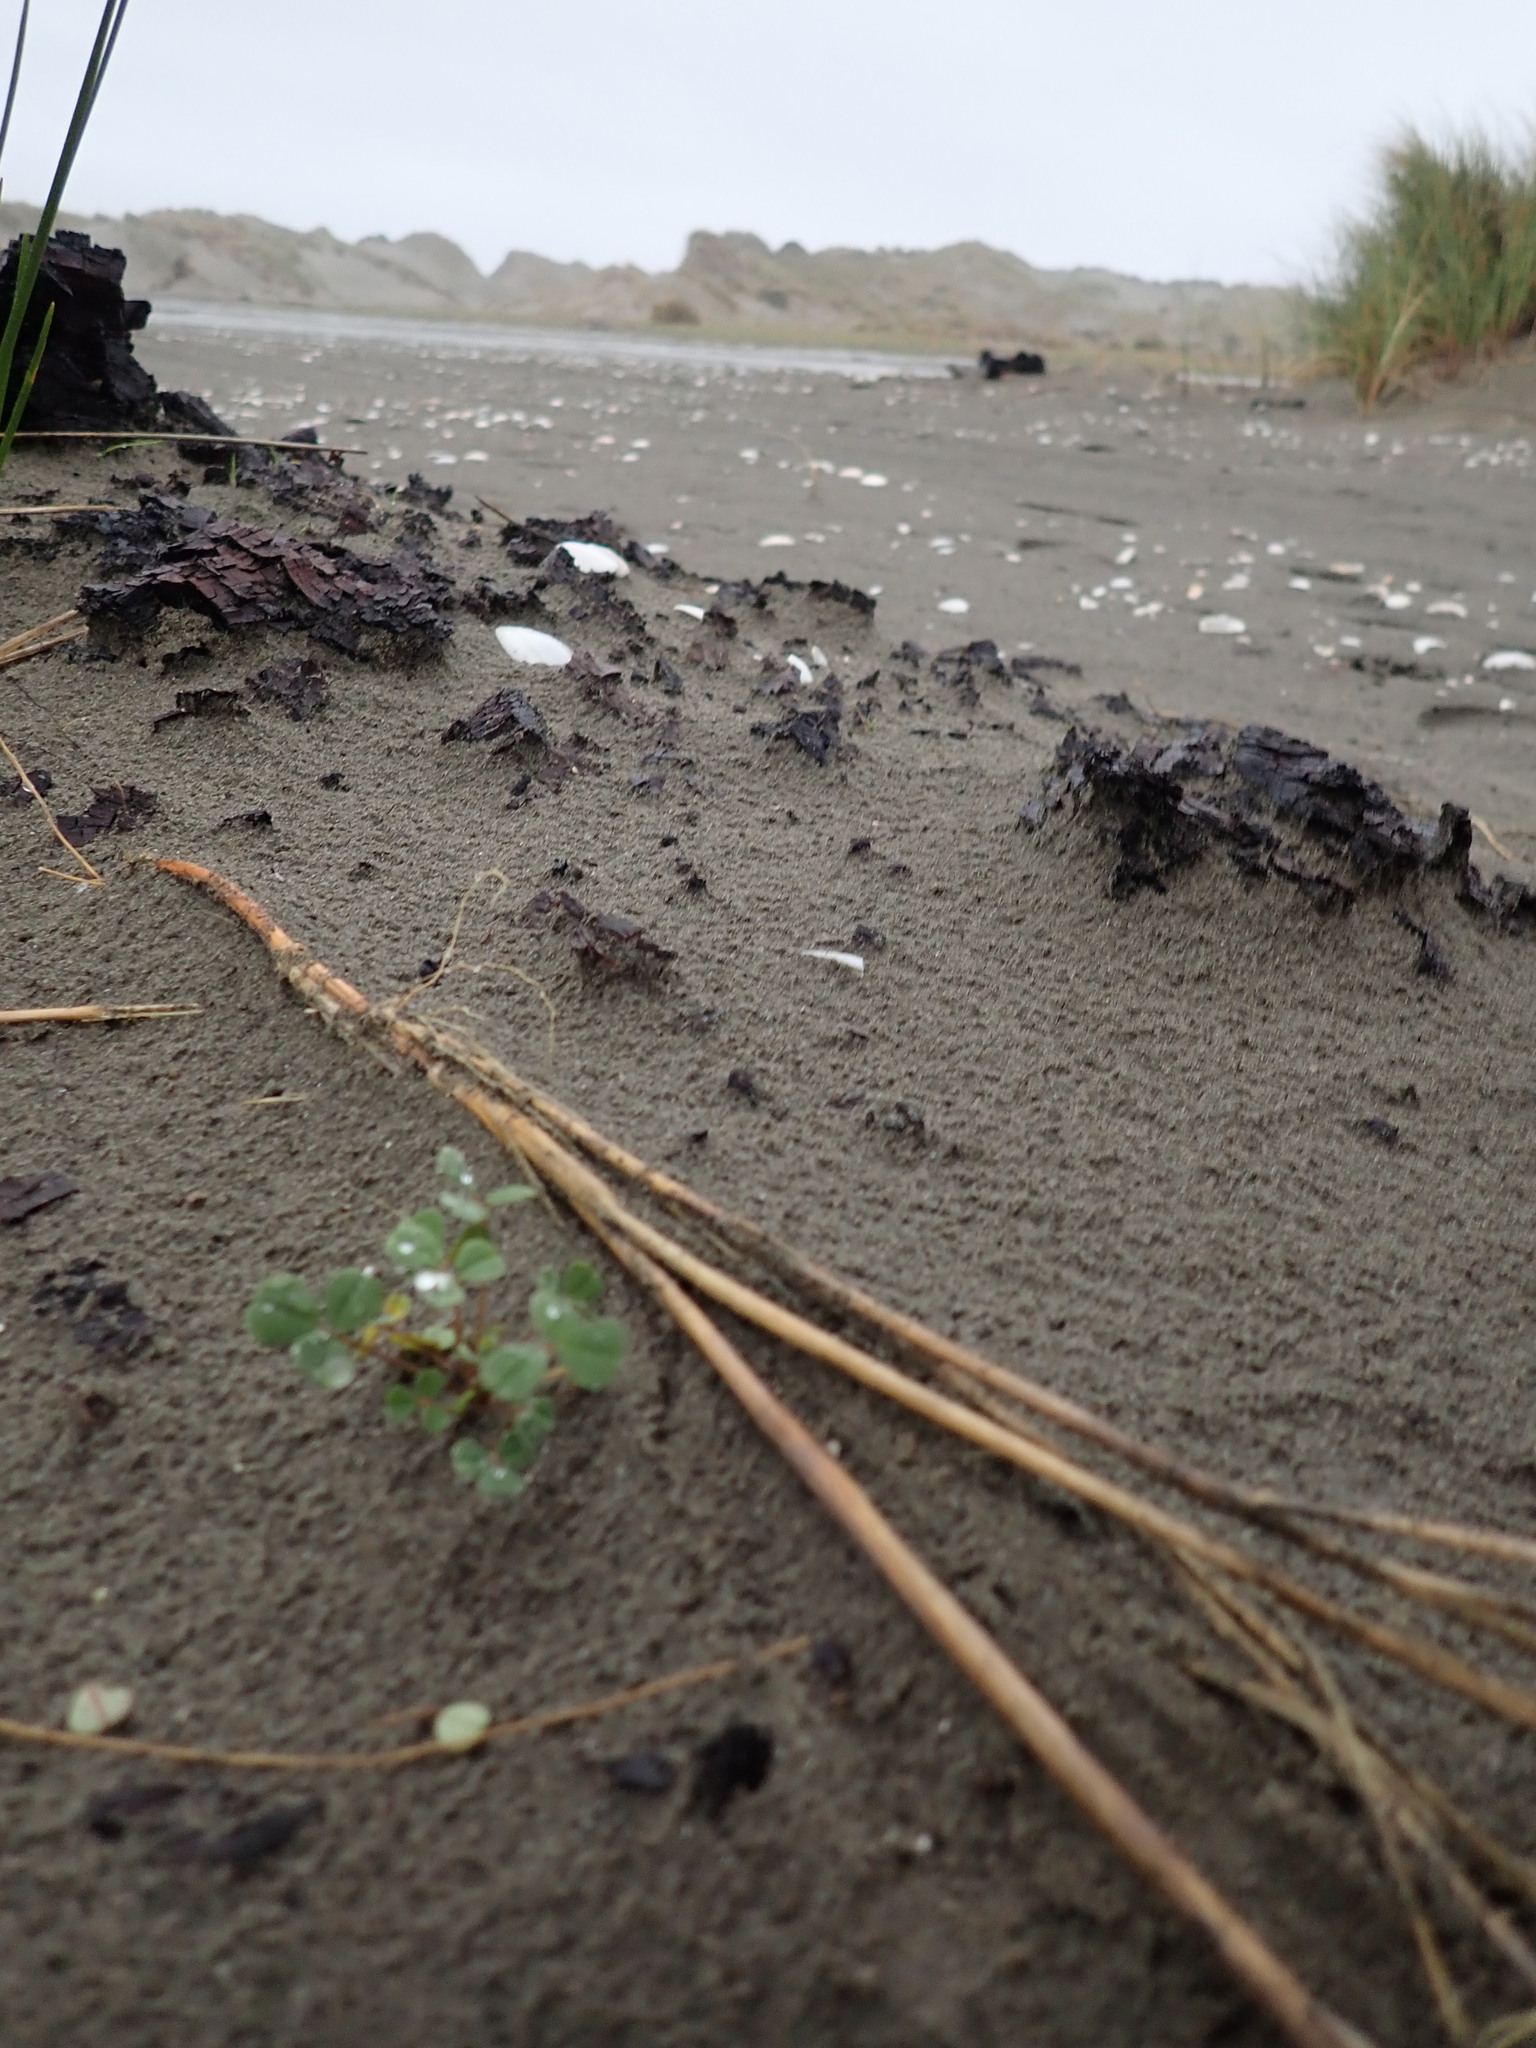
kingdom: Plantae
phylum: Tracheophyta
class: Magnoliopsida
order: Fabales
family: Fabaceae
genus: Melilotus
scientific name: Melilotus indicus
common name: Small melilot
